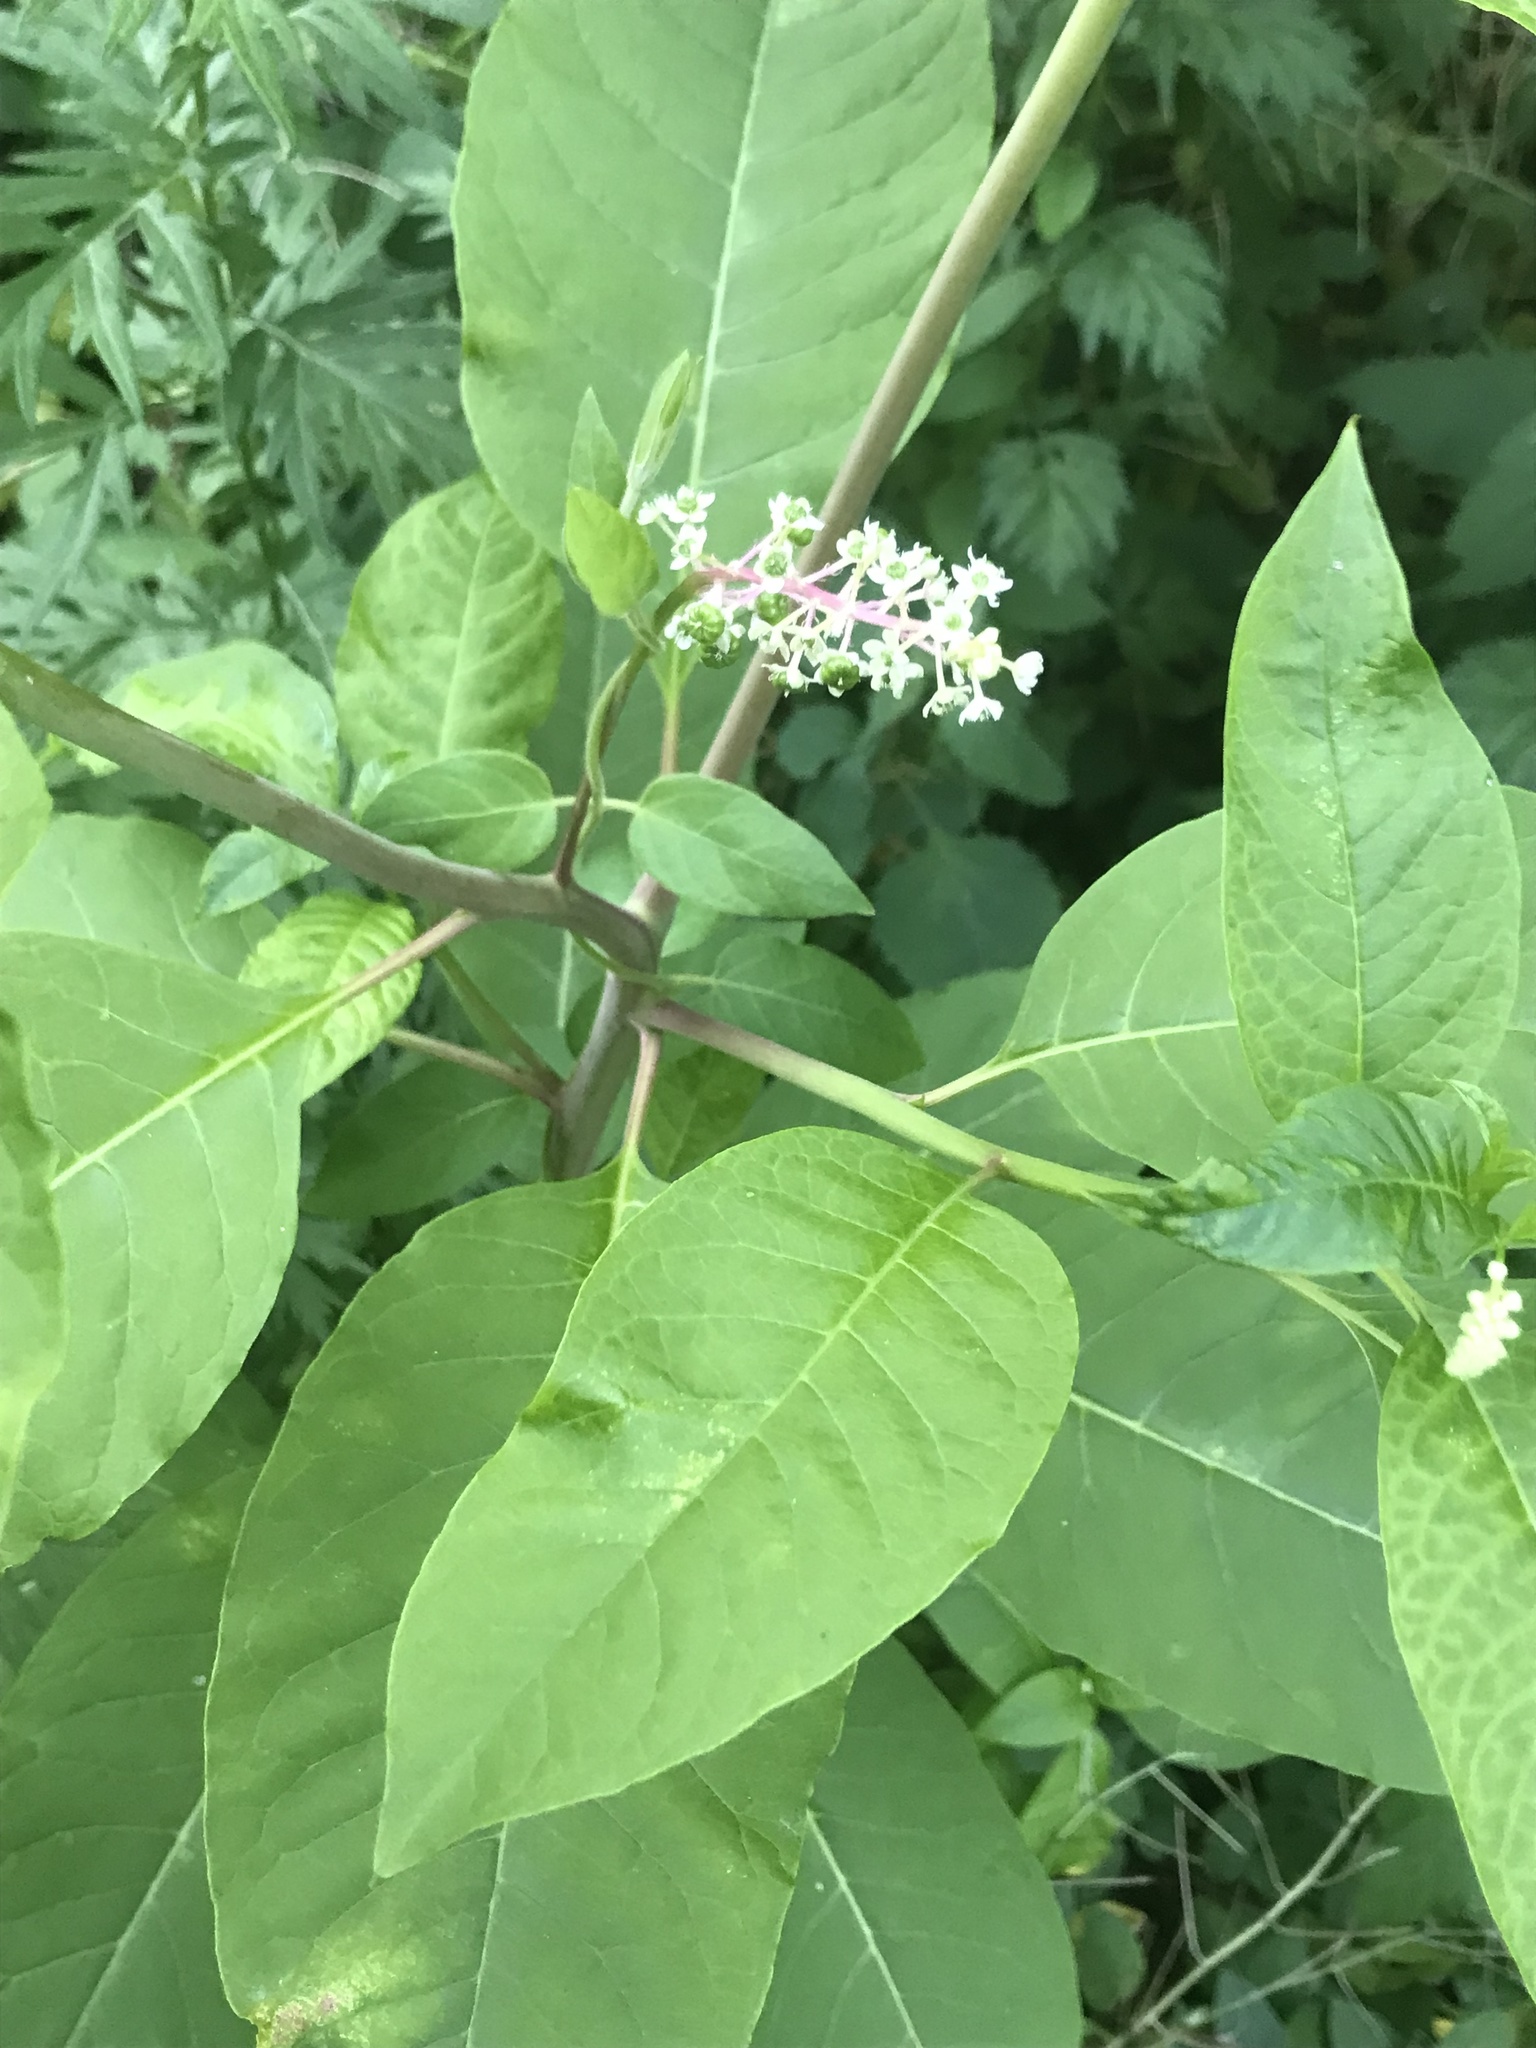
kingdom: Plantae
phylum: Tracheophyta
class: Magnoliopsida
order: Caryophyllales
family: Phytolaccaceae
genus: Phytolacca
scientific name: Phytolacca americana
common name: American pokeweed
